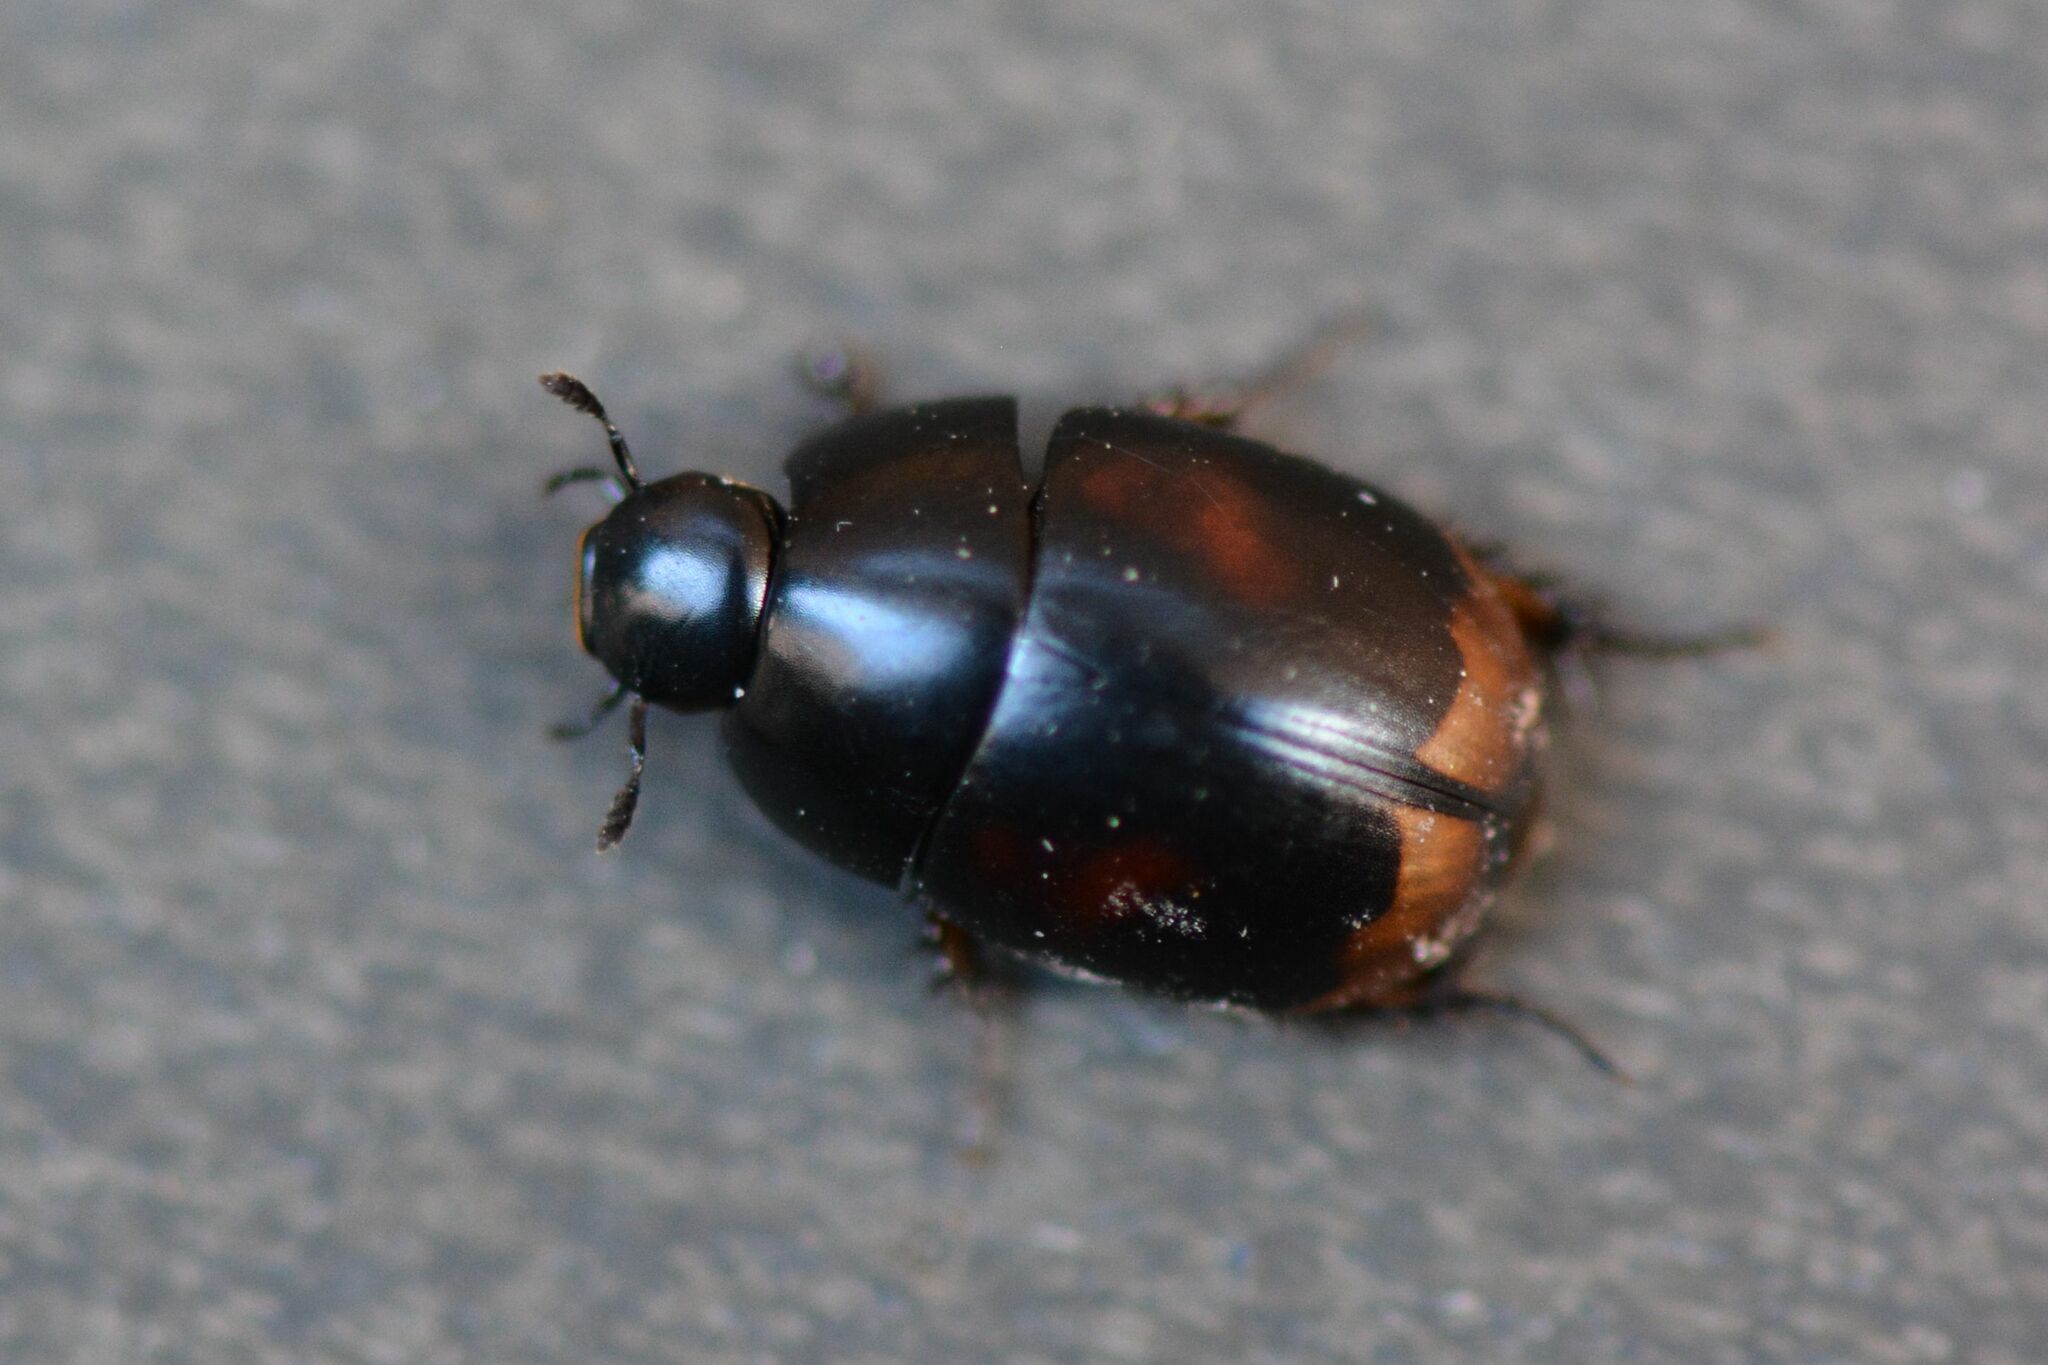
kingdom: Animalia
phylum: Arthropoda
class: Insecta
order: Coleoptera
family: Hydrophilidae
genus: Sphaeridium
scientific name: Sphaeridium scarabaeoides
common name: Water scavenger beetle
